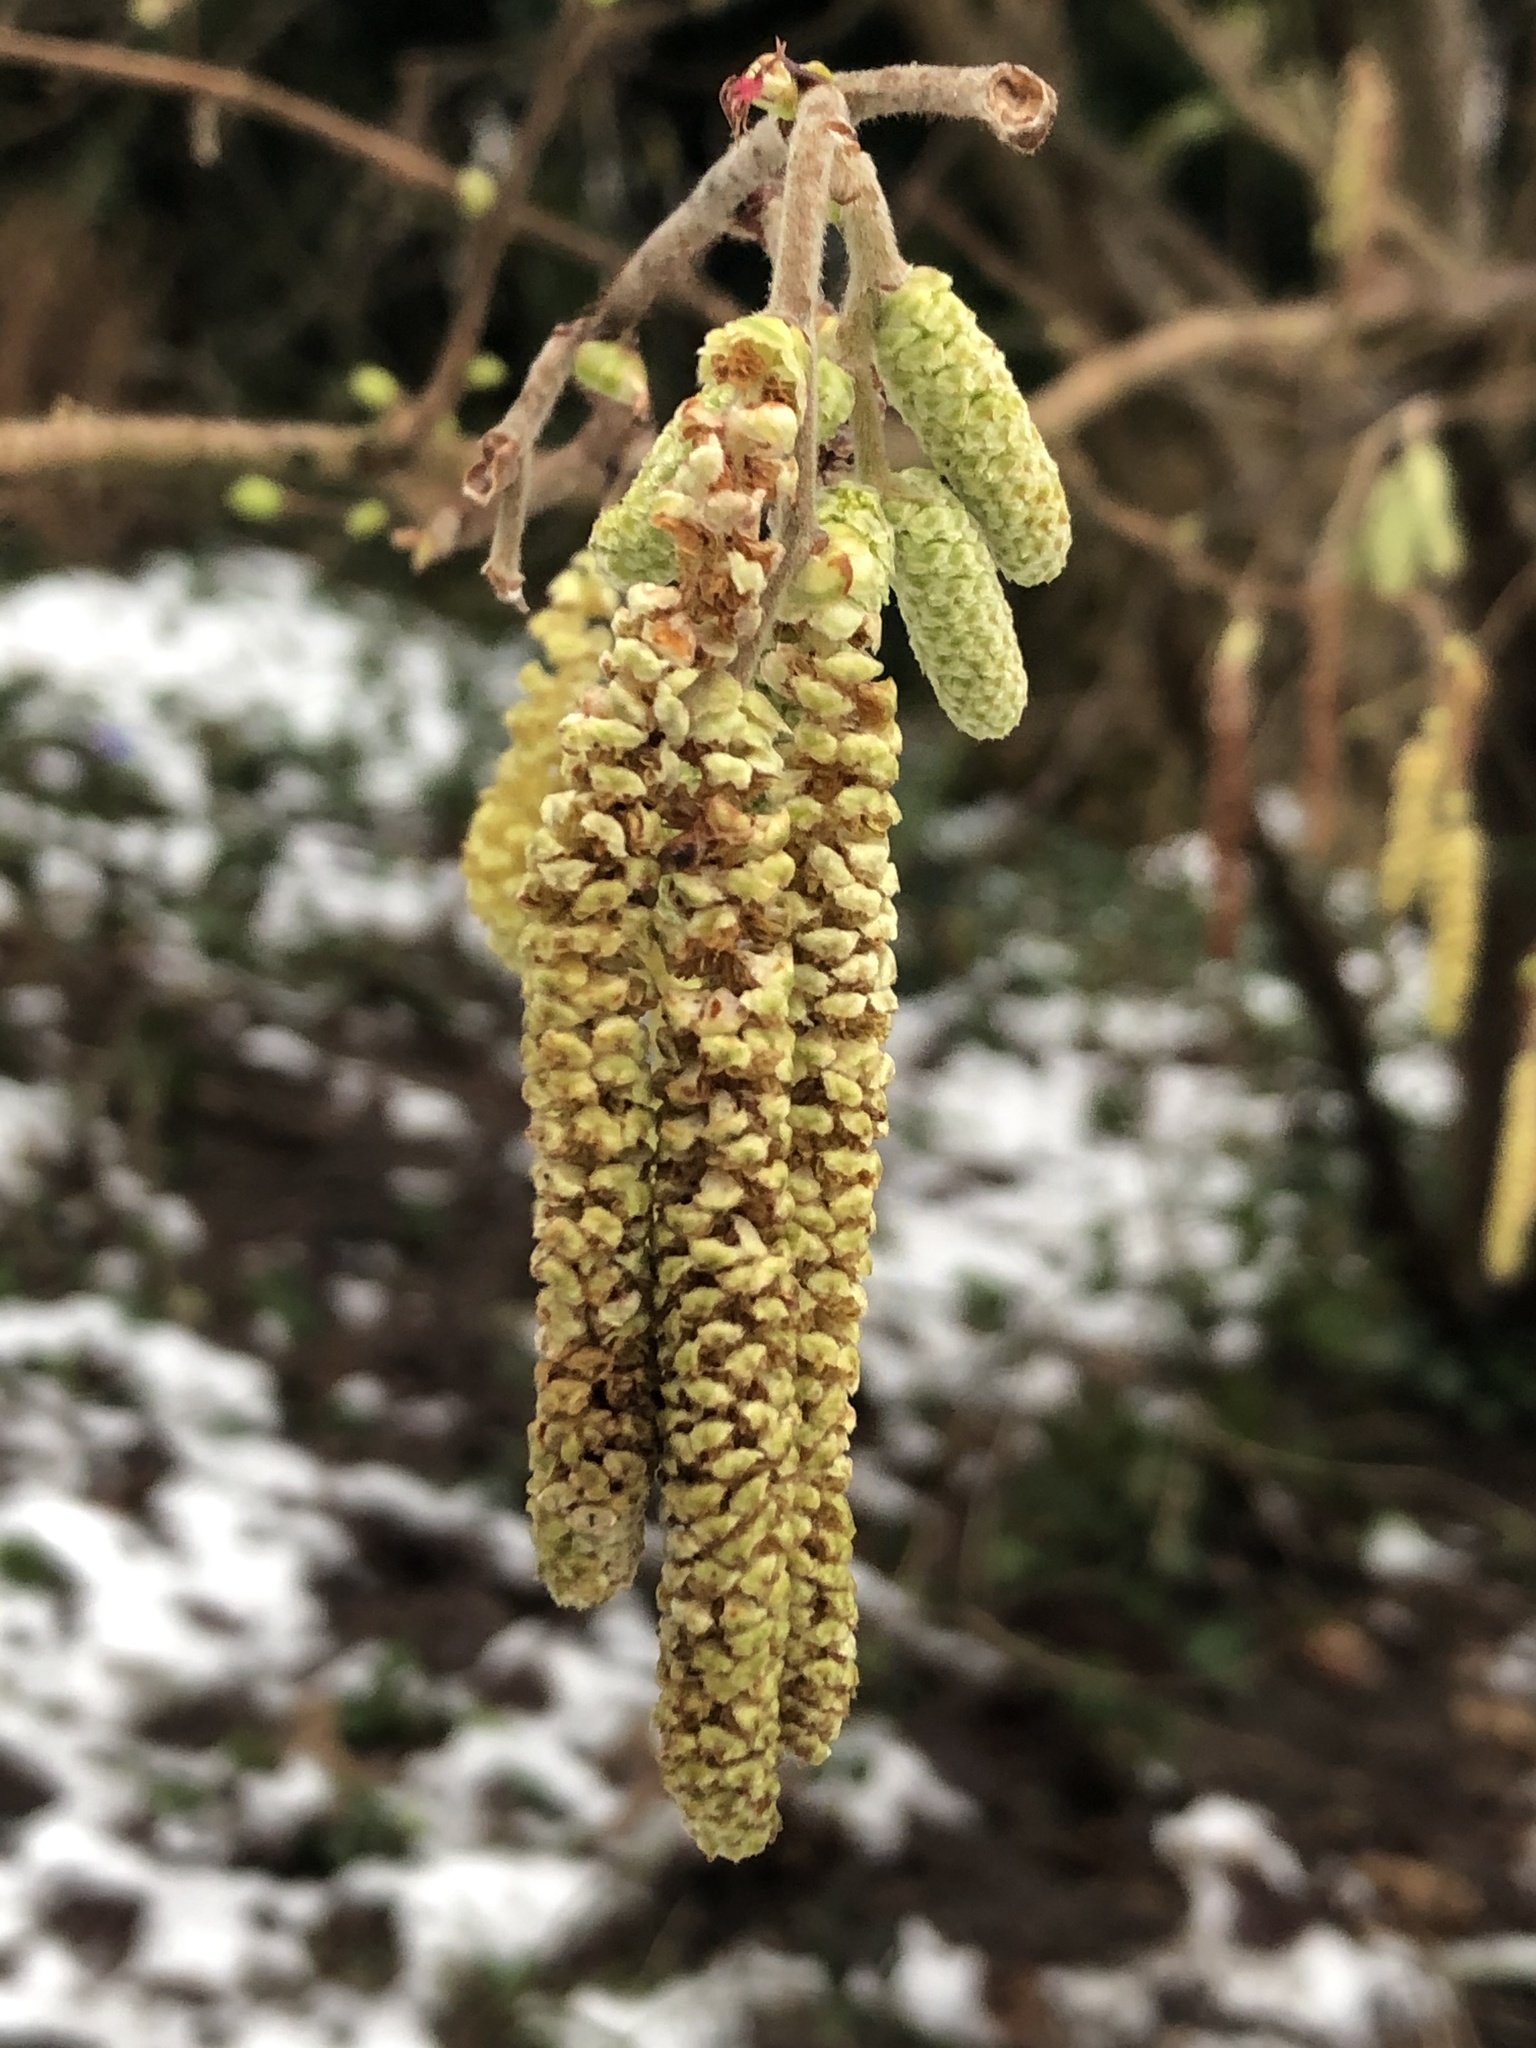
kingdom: Plantae
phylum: Tracheophyta
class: Magnoliopsida
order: Fagales
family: Betulaceae
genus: Corylus
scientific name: Corylus avellana
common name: European hazel
